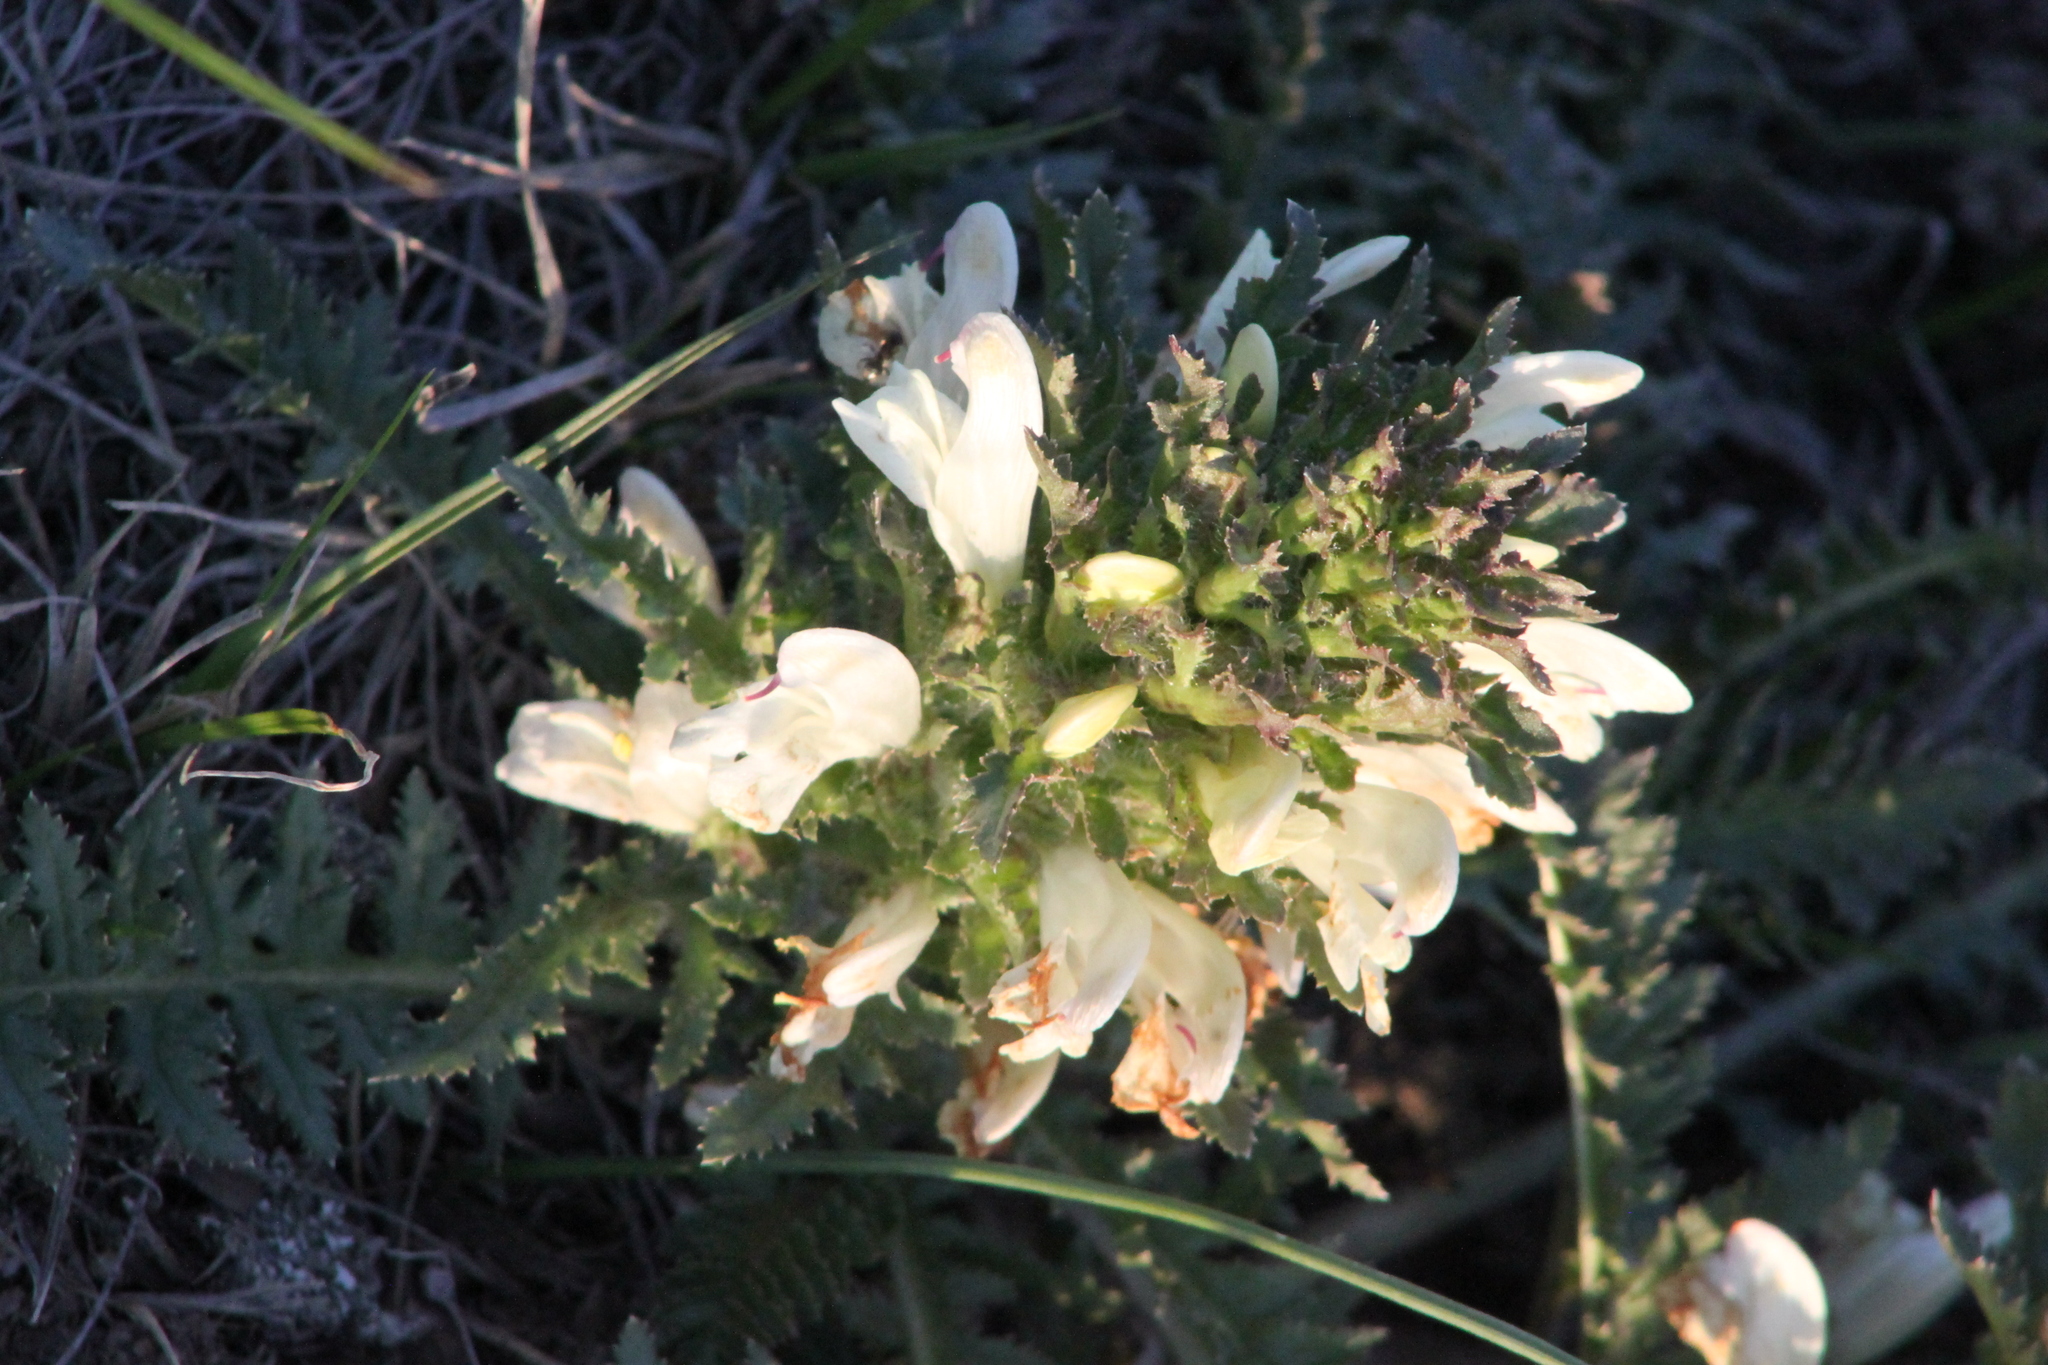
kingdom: Plantae
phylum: Tracheophyta
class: Magnoliopsida
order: Lamiales
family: Orobanchaceae
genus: Pedicularis
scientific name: Pedicularis physocalyx
